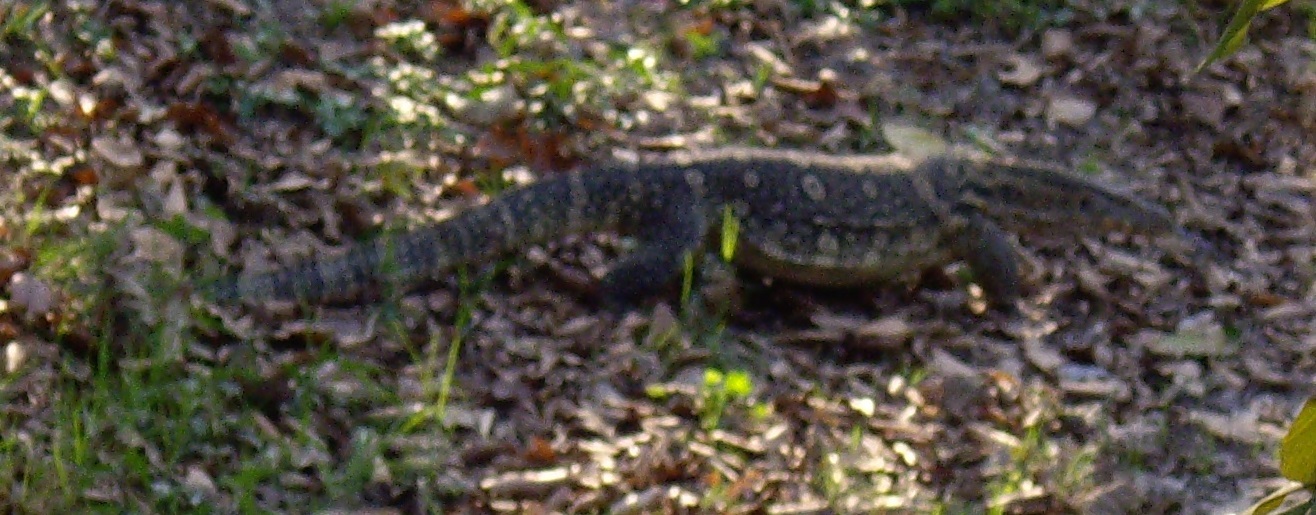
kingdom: Animalia
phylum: Chordata
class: Squamata
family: Varanidae
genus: Varanus
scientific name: Varanus salvator
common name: Common water monitor
